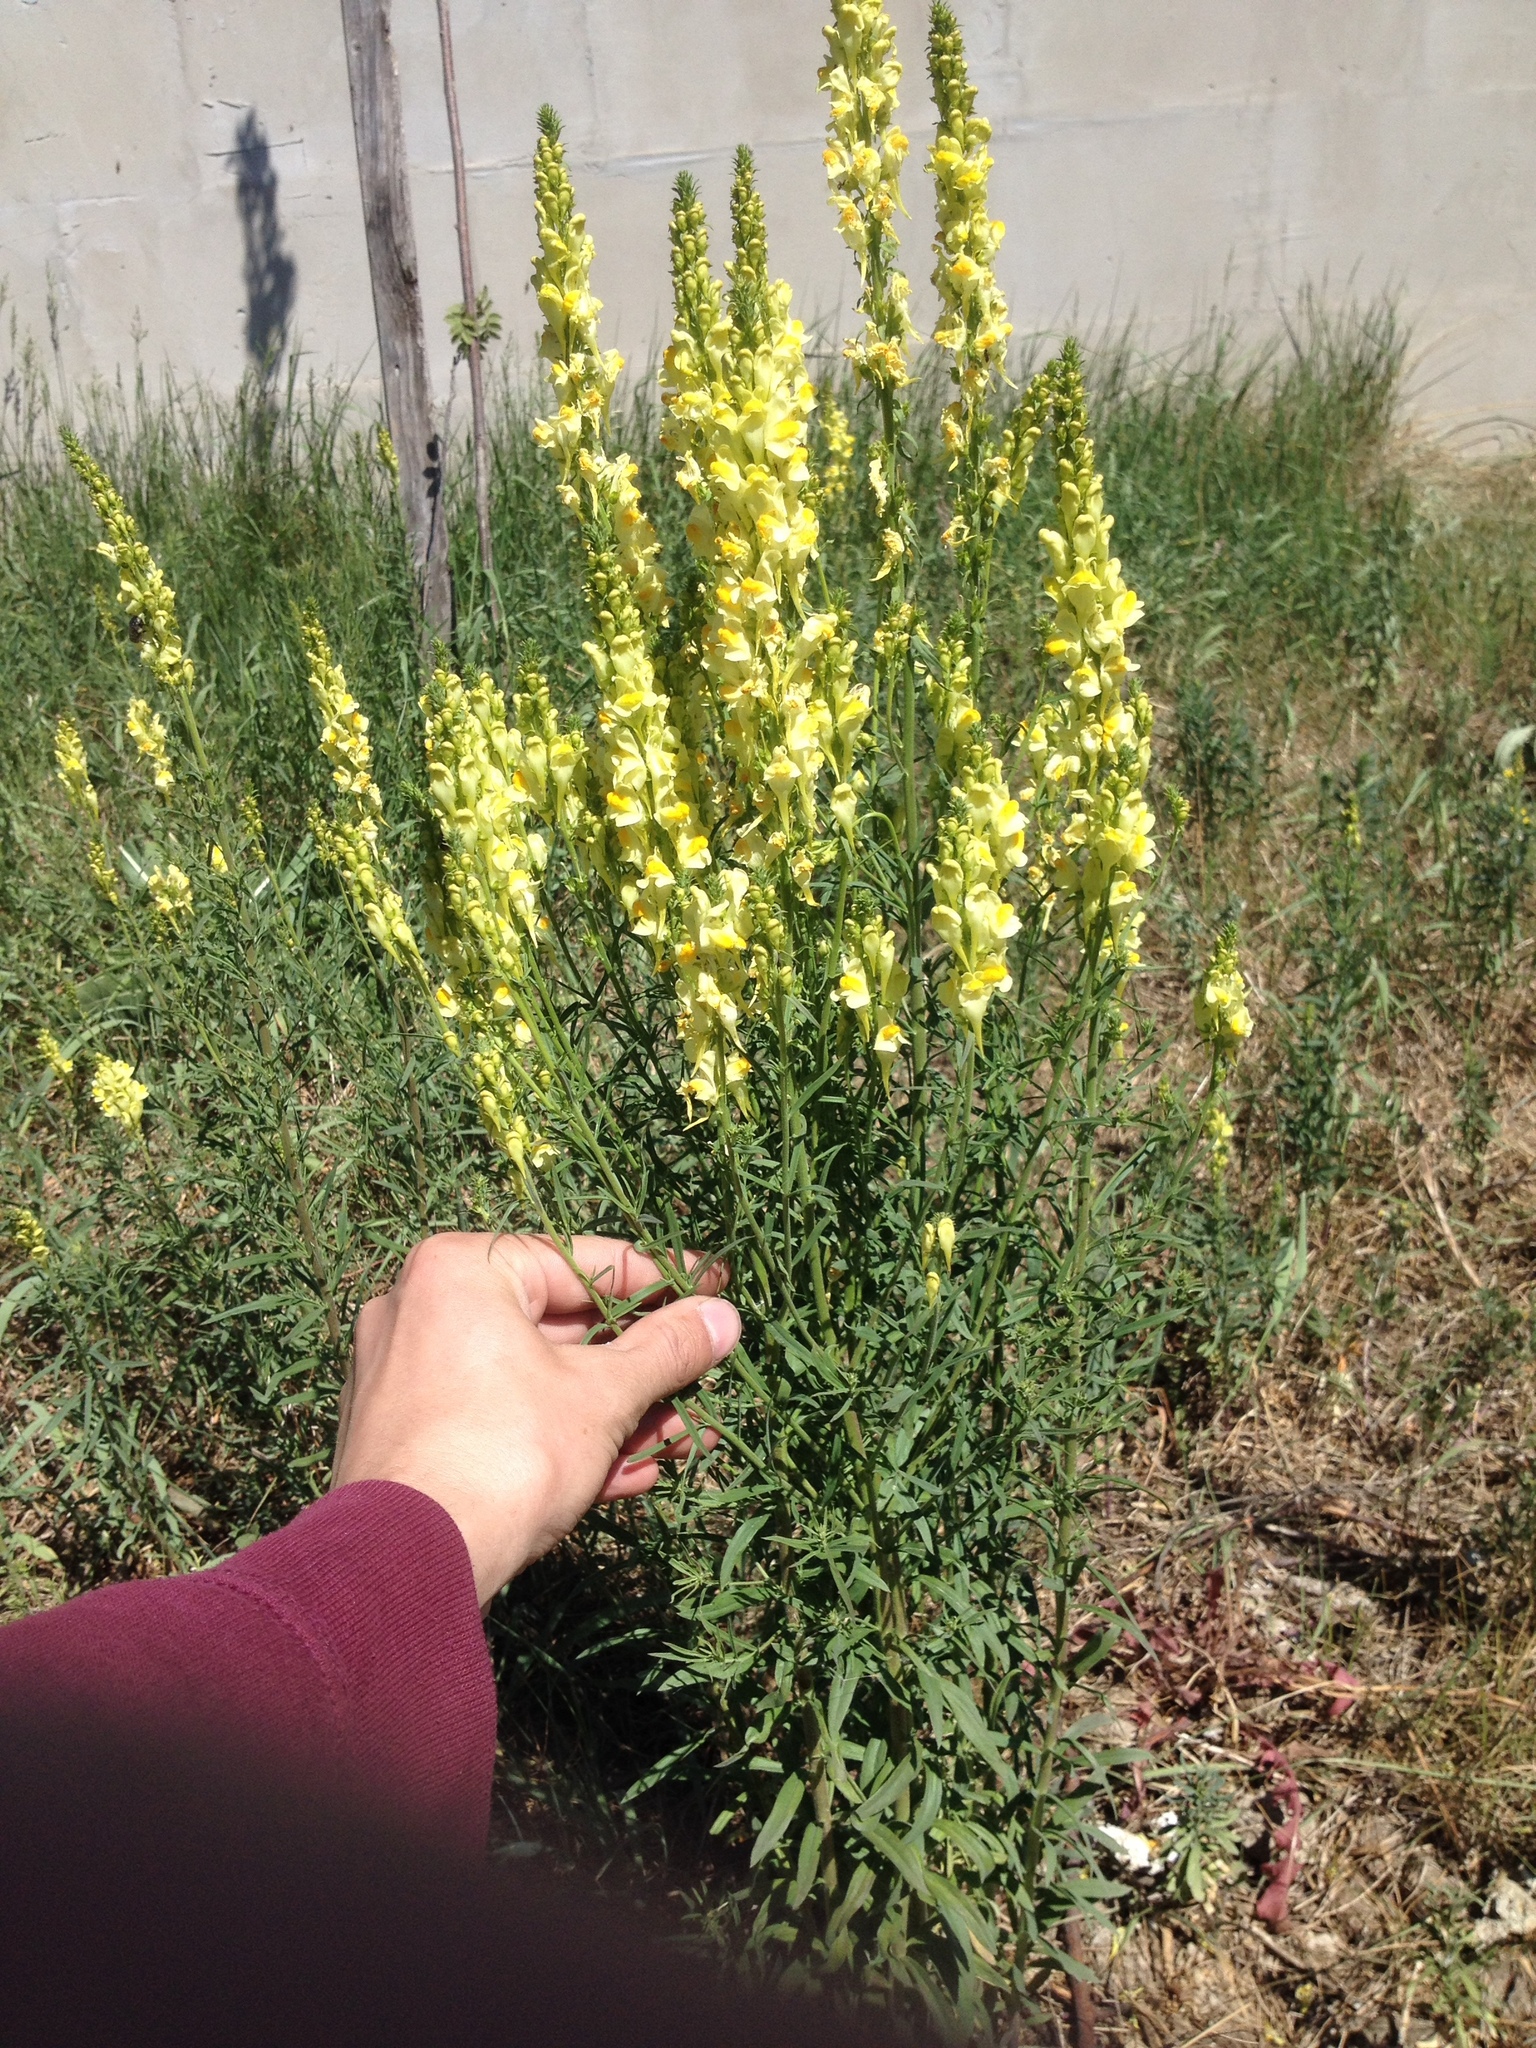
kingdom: Plantae
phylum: Tracheophyta
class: Magnoliopsida
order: Lamiales
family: Plantaginaceae
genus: Linaria
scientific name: Linaria vulgaris
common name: Butter and eggs
